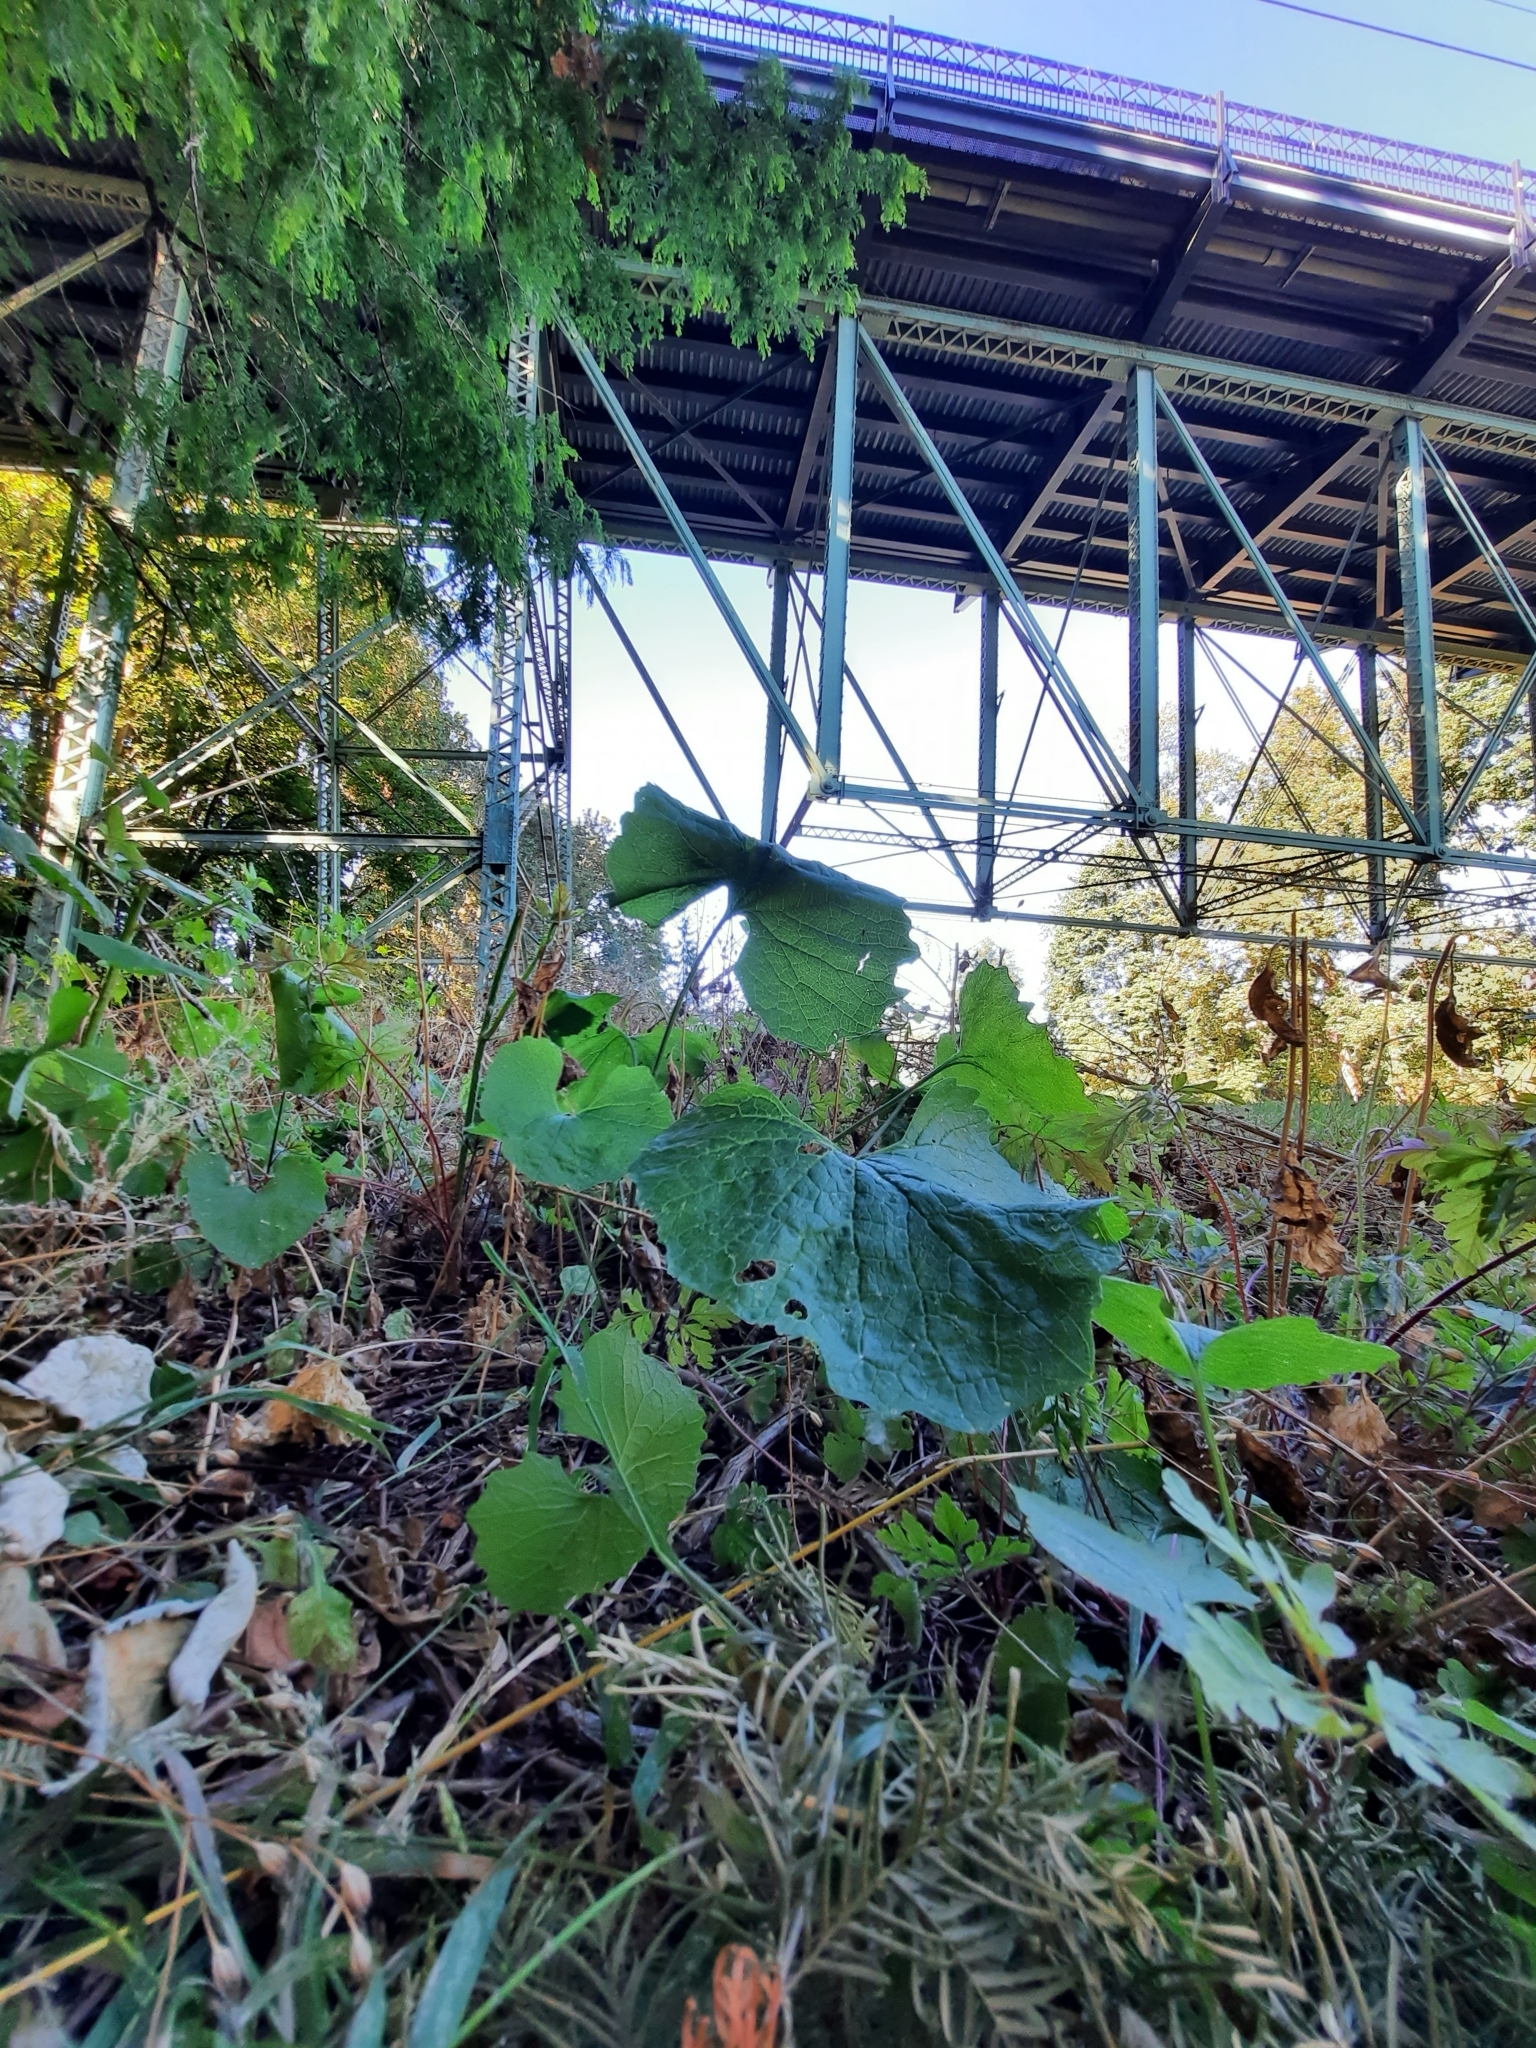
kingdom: Plantae
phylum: Tracheophyta
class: Magnoliopsida
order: Brassicales
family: Brassicaceae
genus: Alliaria
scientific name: Alliaria petiolata
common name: Garlic mustard
